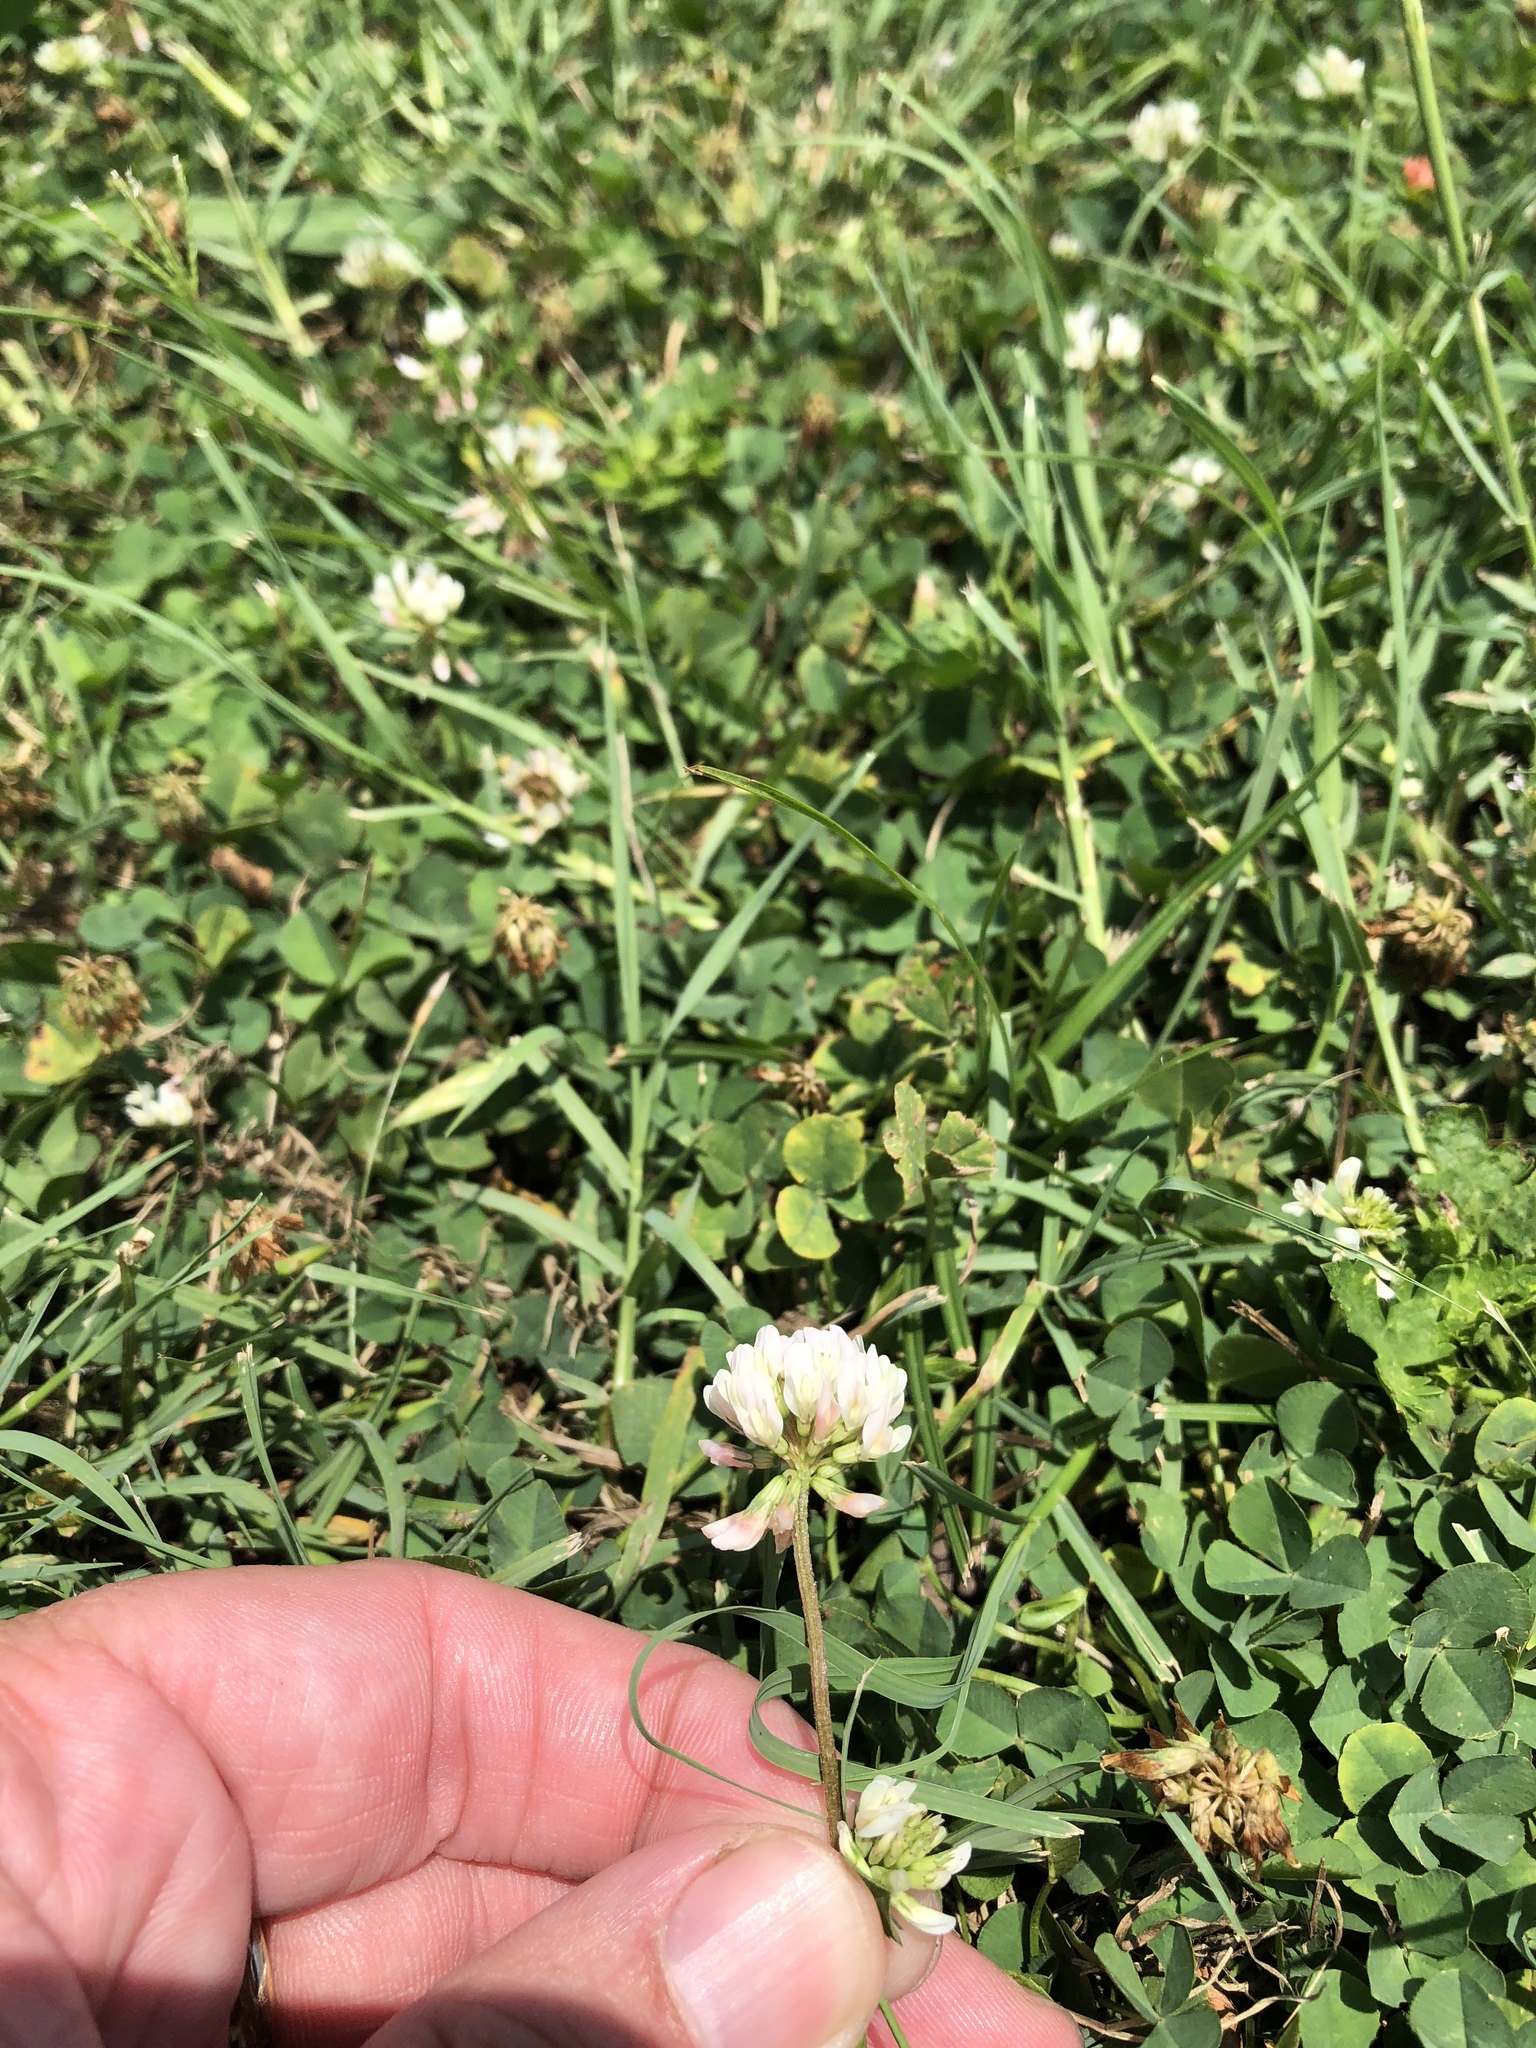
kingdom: Plantae
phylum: Tracheophyta
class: Magnoliopsida
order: Fabales
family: Fabaceae
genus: Trifolium
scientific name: Trifolium repens
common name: White clover
